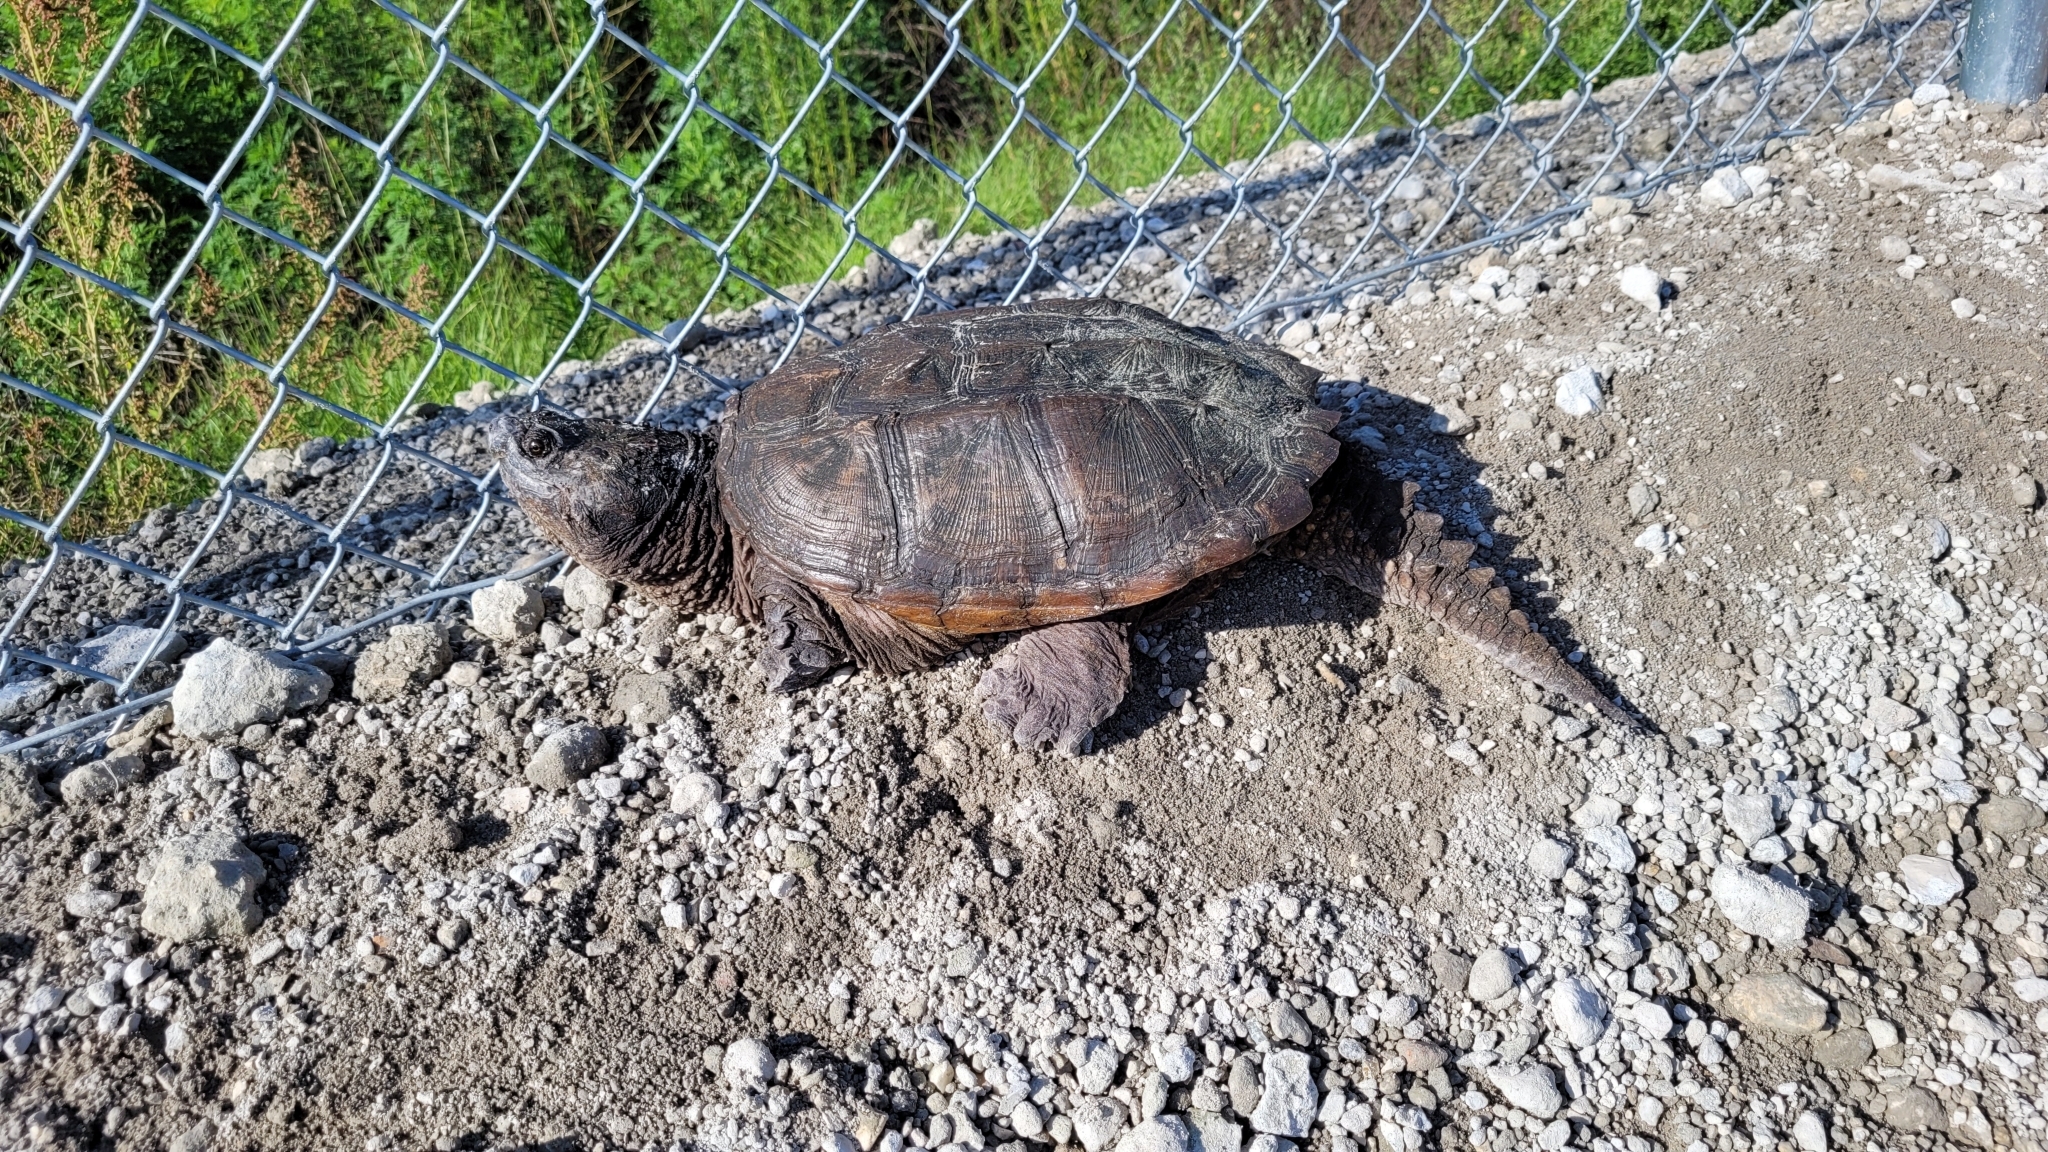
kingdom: Animalia
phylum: Chordata
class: Testudines
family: Chelydridae
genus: Chelydra
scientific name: Chelydra serpentina
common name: Common snapping turtle
